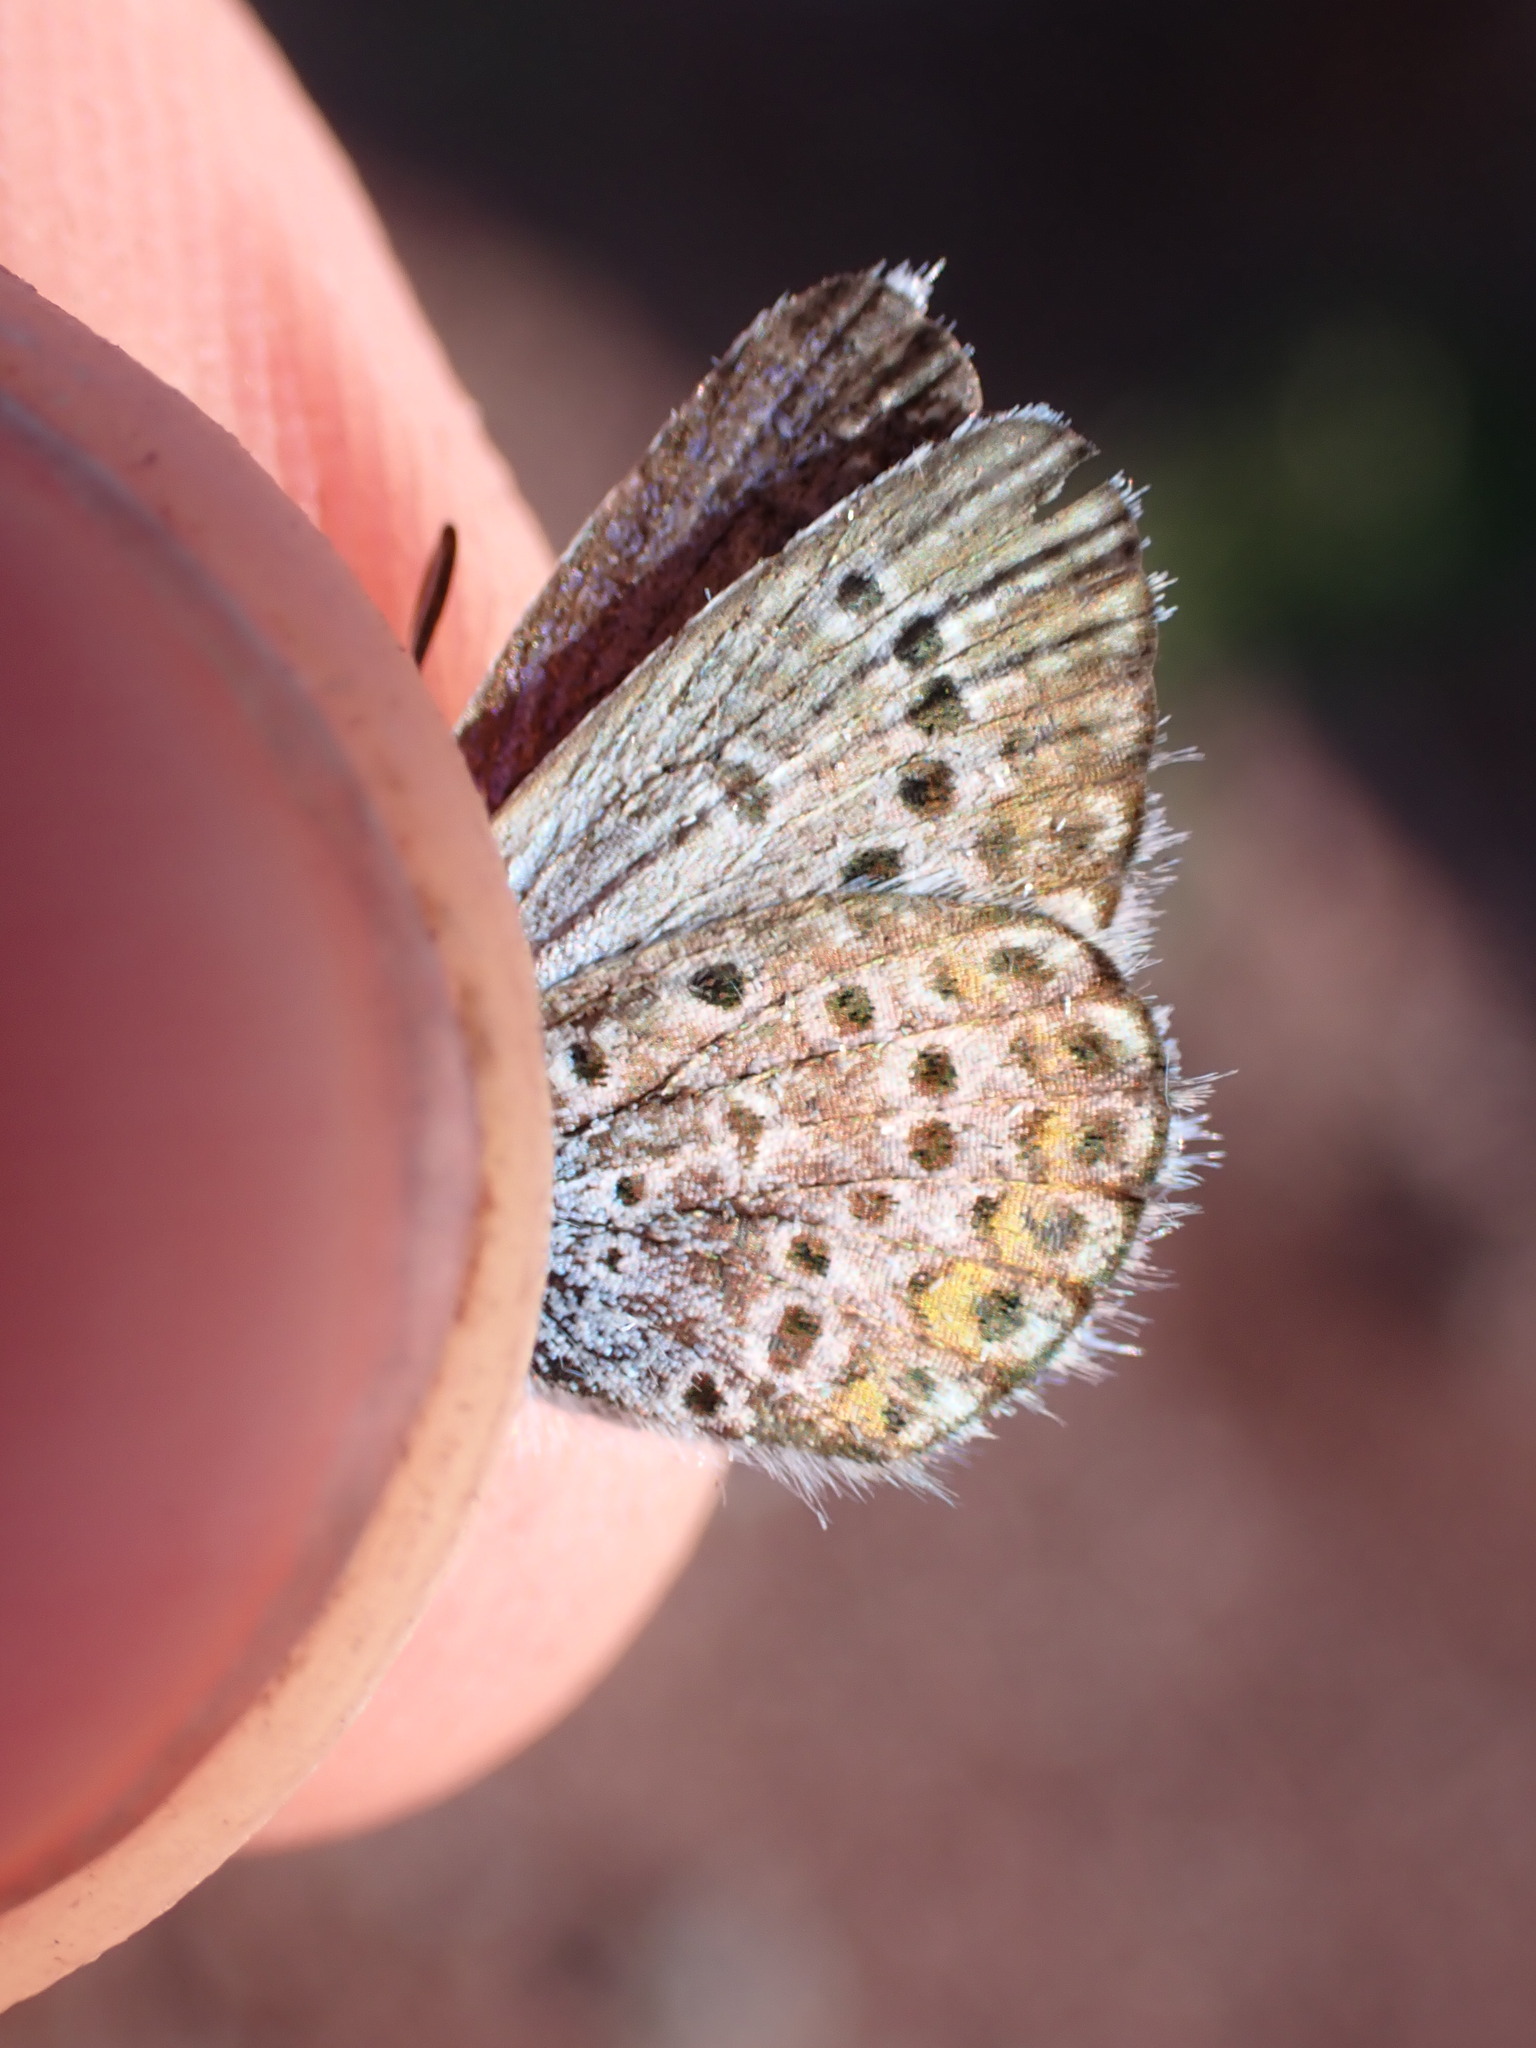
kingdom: Animalia
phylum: Arthropoda
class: Insecta
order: Lepidoptera
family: Lycaenidae
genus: Plebejus
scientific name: Plebejus argus
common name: Silver-studded blue
